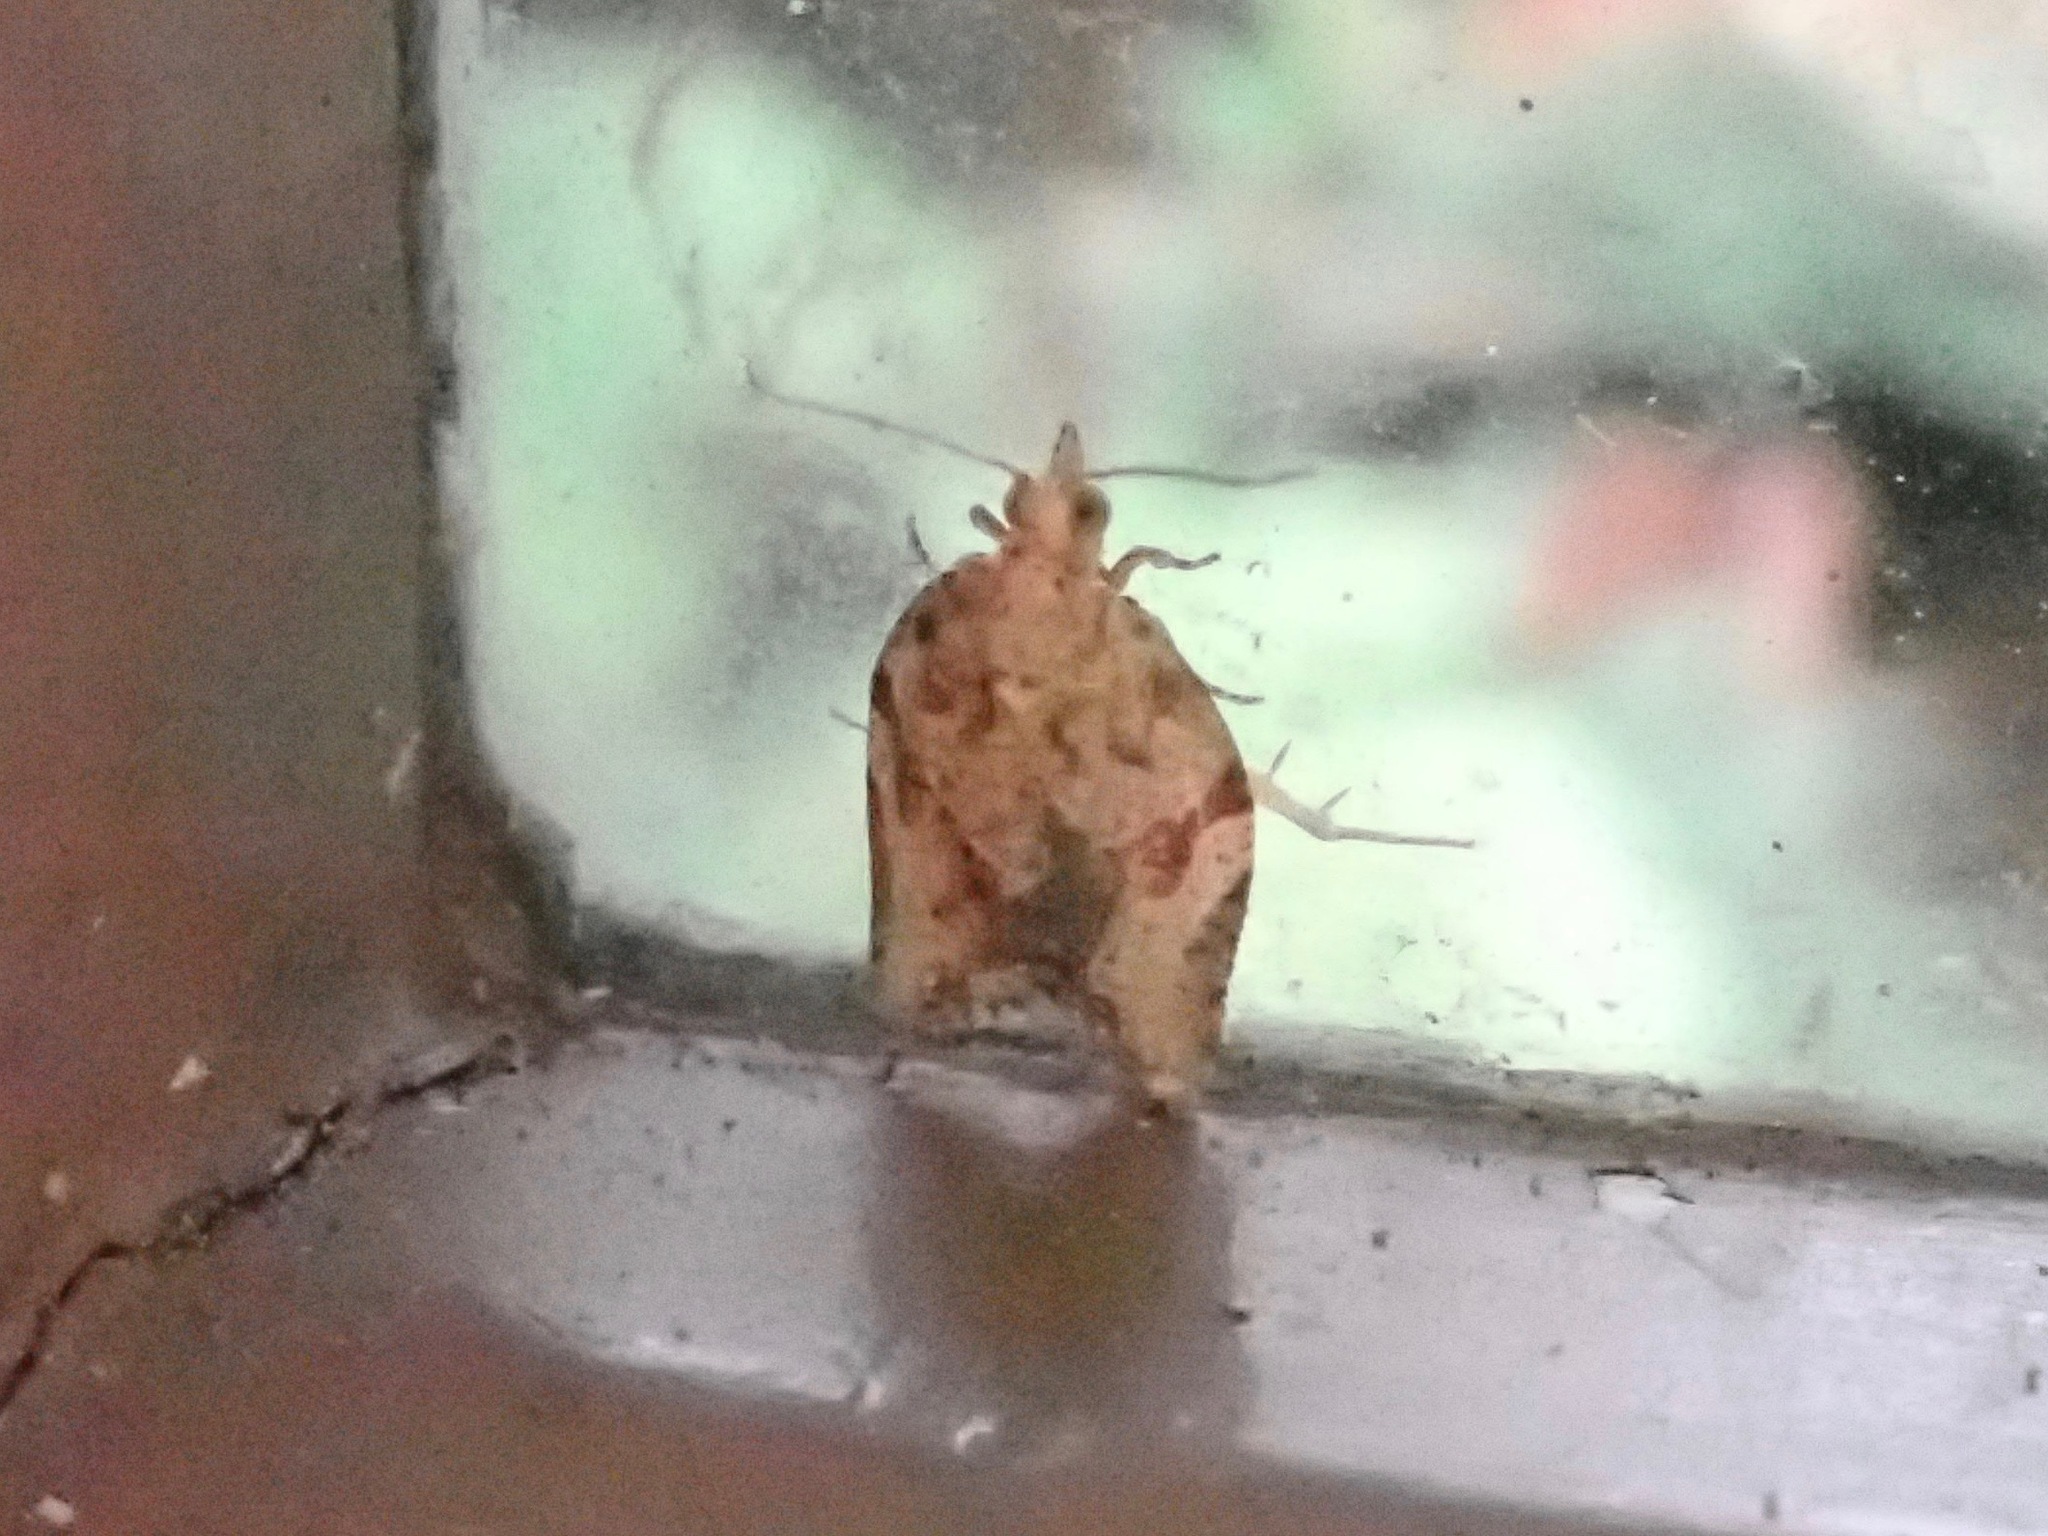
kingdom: Animalia
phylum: Arthropoda
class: Insecta
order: Lepidoptera
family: Tortricidae
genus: Epiphyas
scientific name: Epiphyas postvittana
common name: Light brown apple moth
